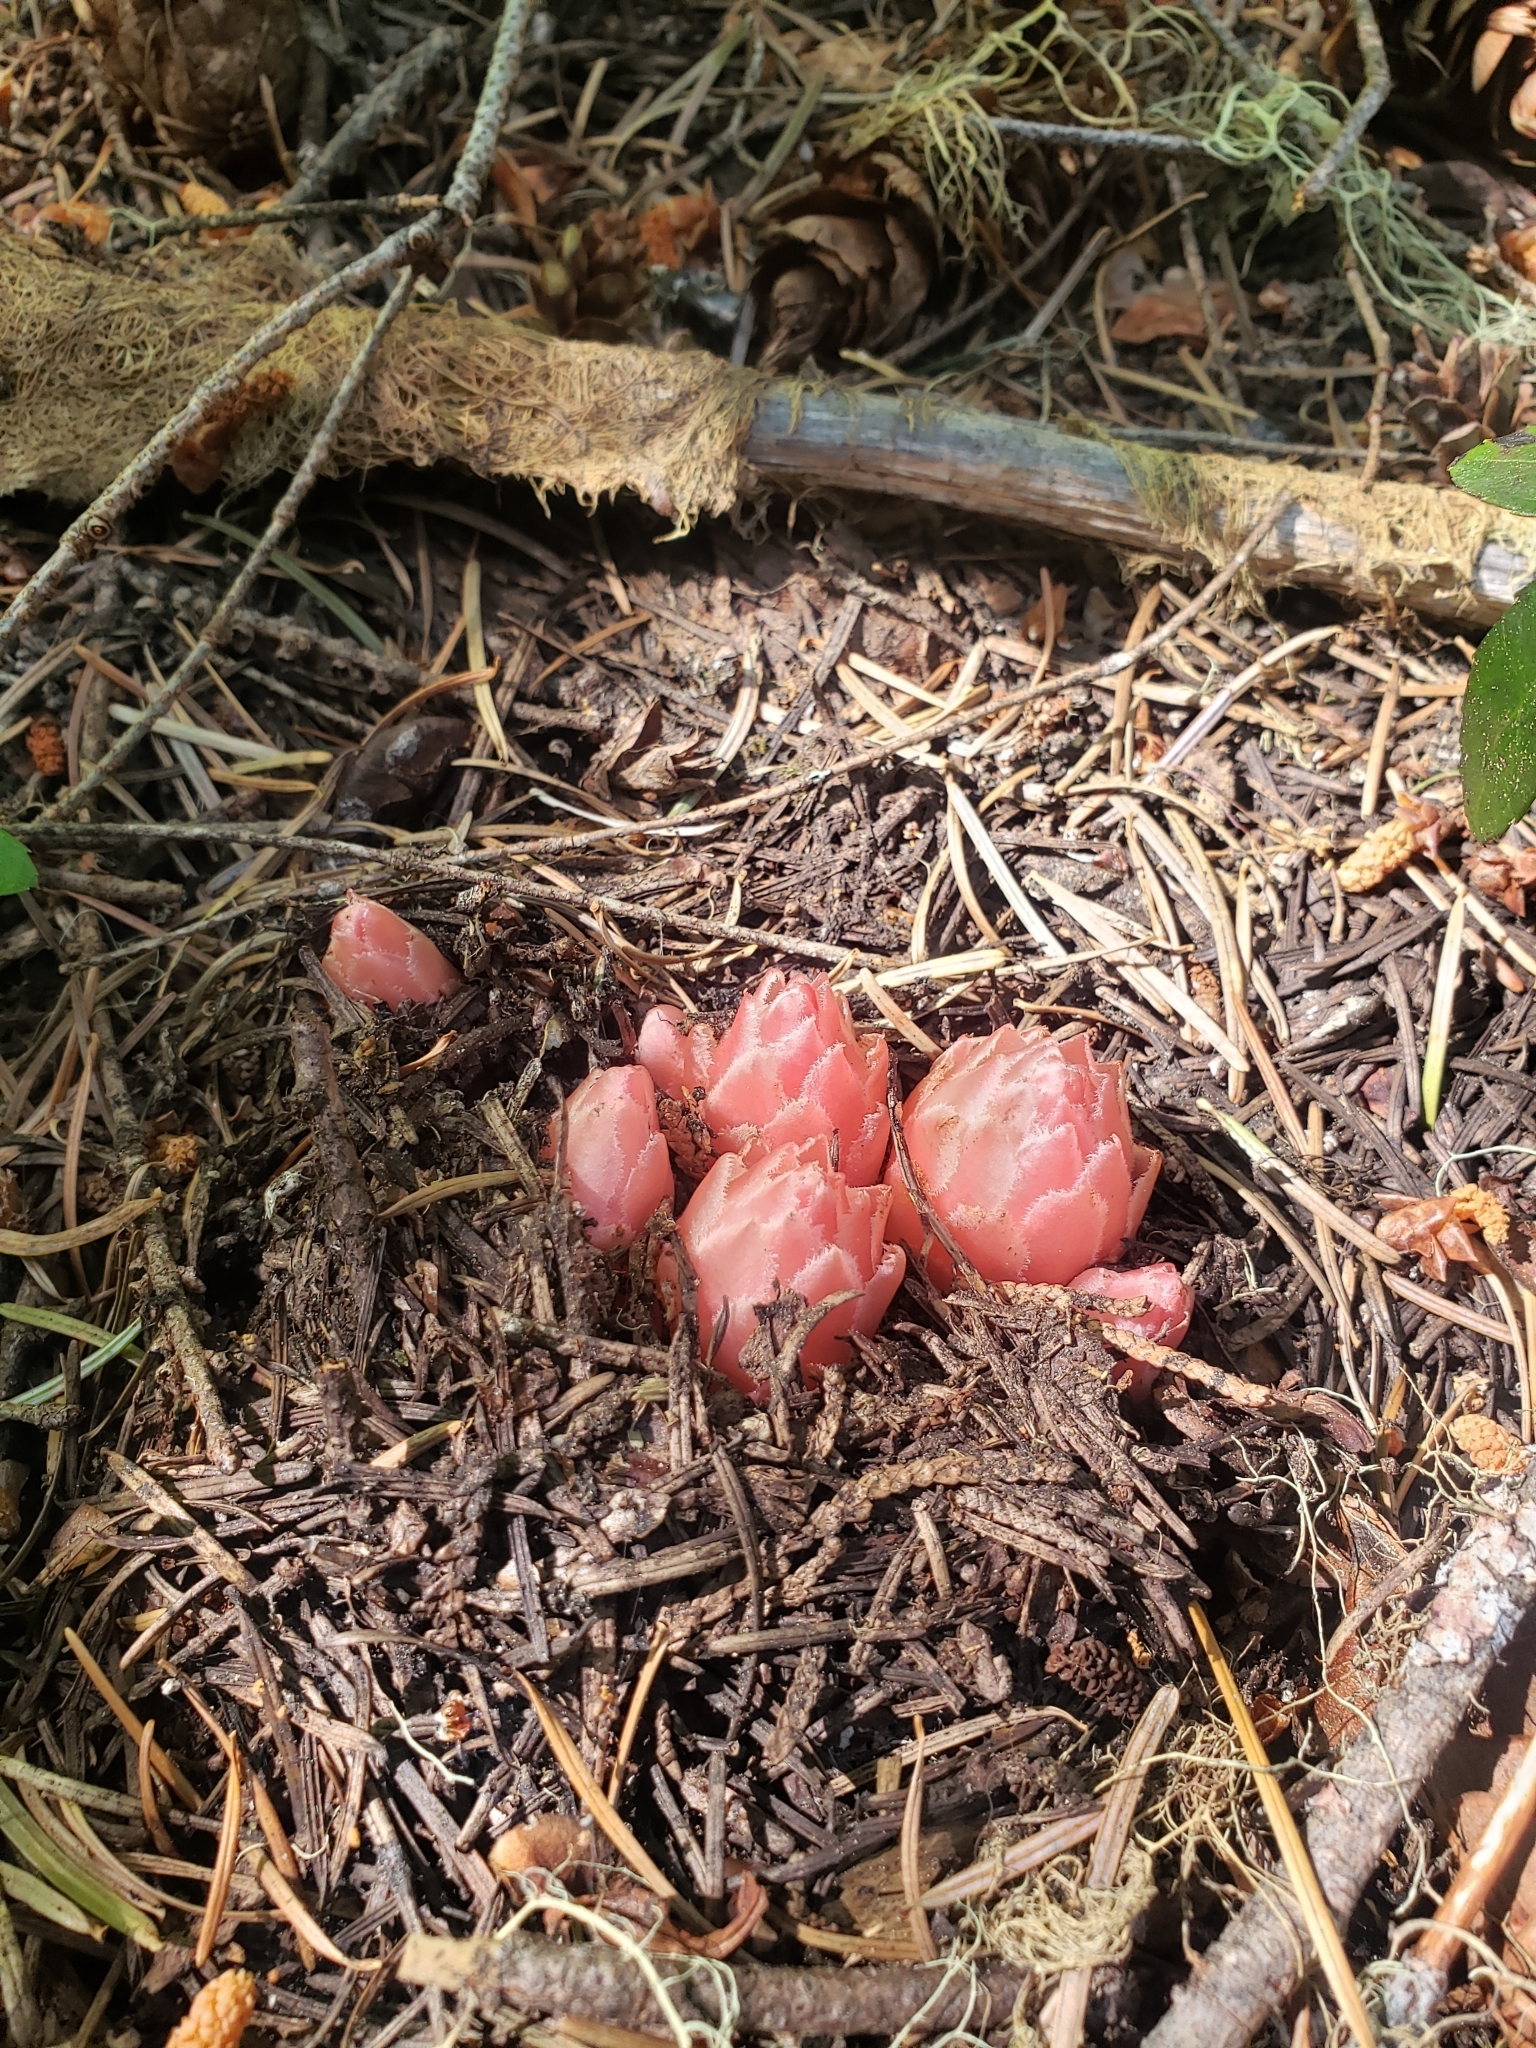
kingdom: Plantae
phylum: Tracheophyta
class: Magnoliopsida
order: Ericales
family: Ericaceae
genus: Hemitomes
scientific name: Hemitomes congestum
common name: Cone plant
